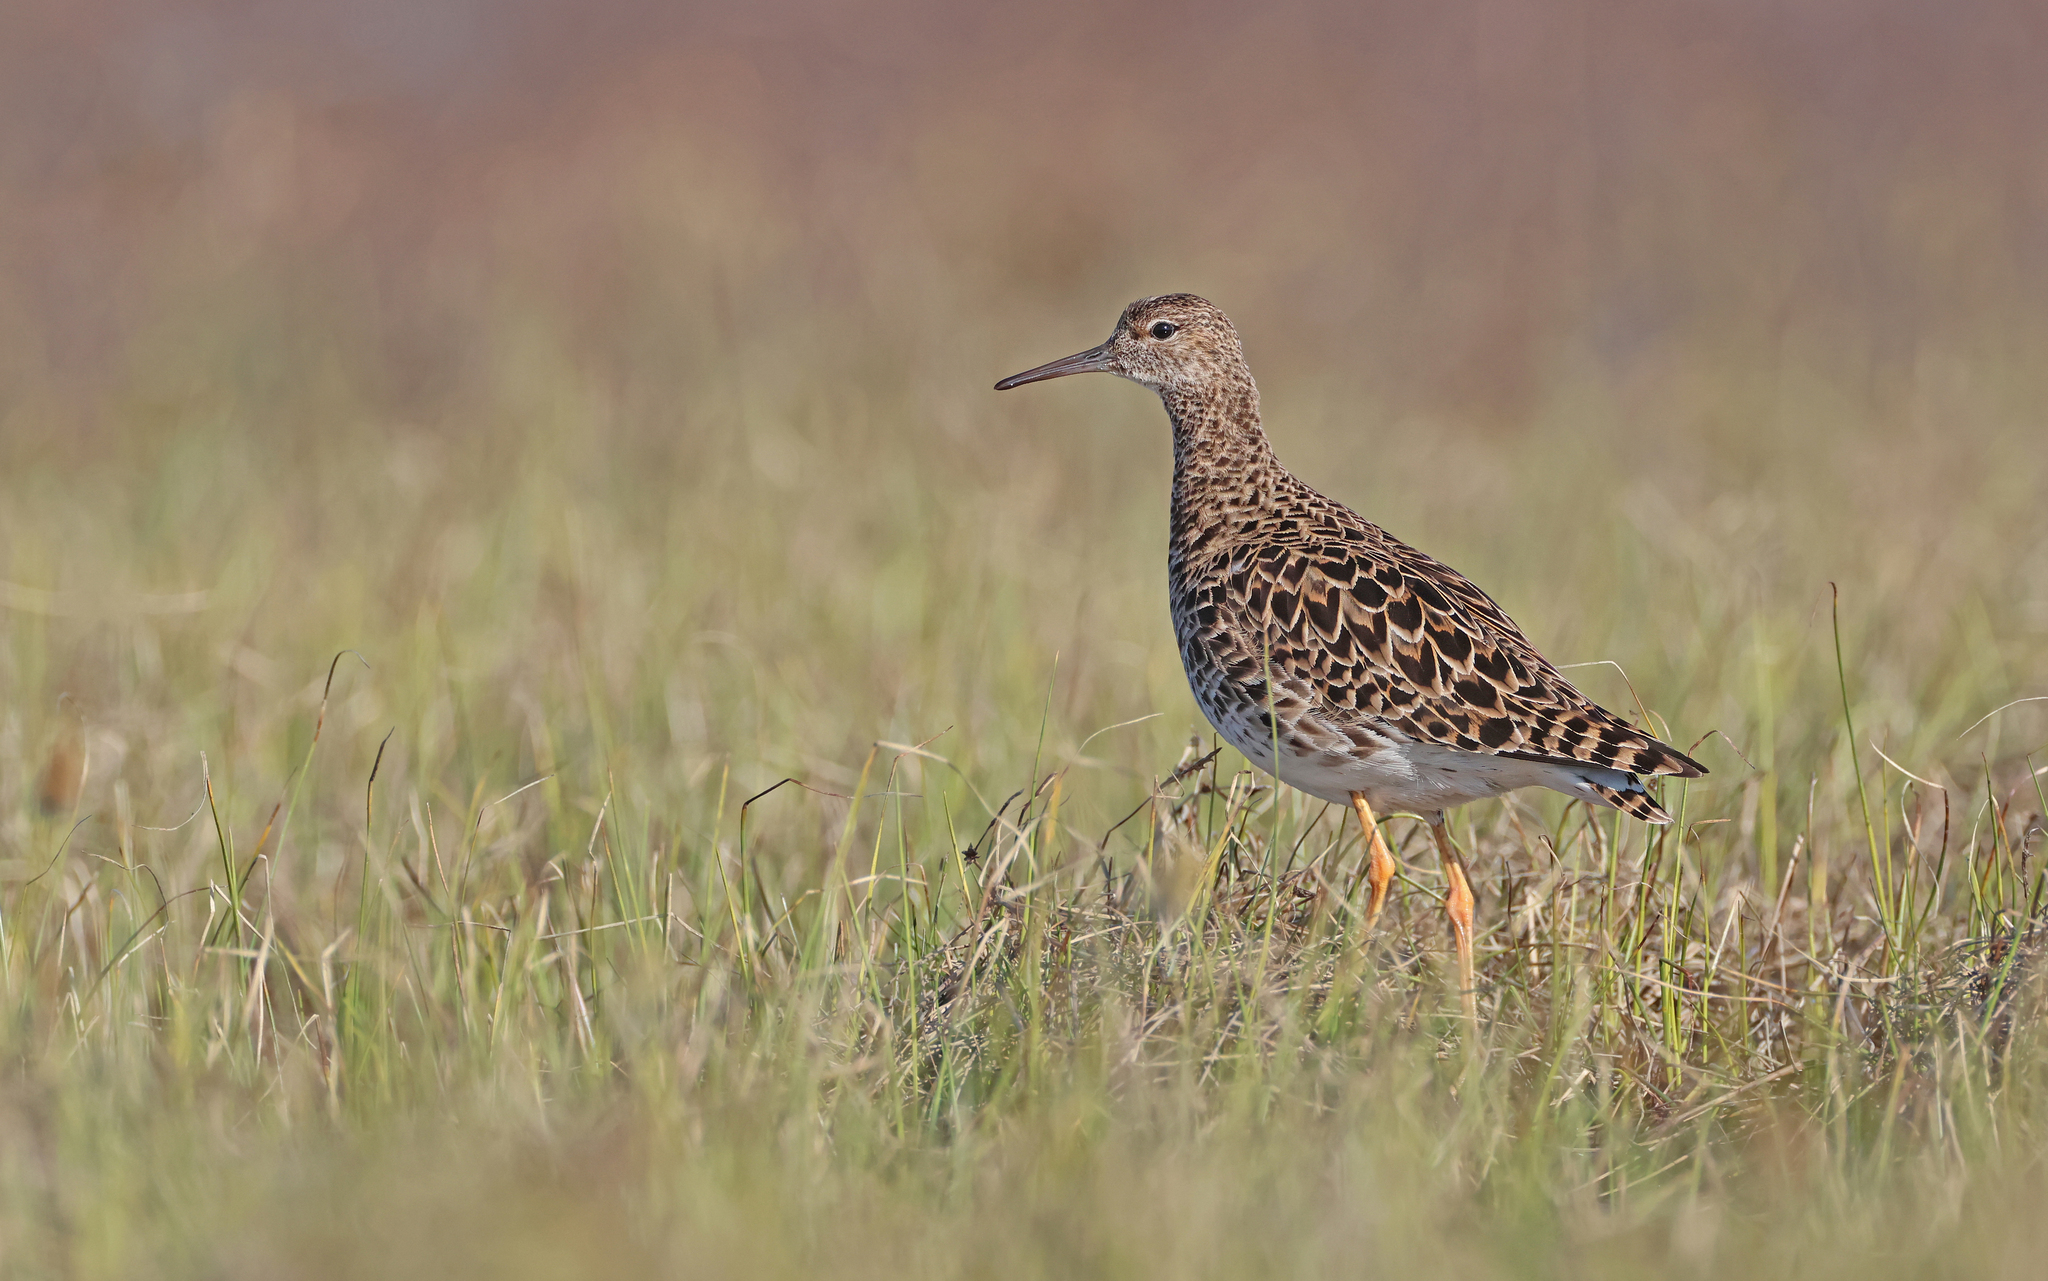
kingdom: Animalia
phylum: Chordata
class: Aves
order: Charadriiformes
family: Scolopacidae
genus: Calidris
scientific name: Calidris pugnax
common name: Ruff
